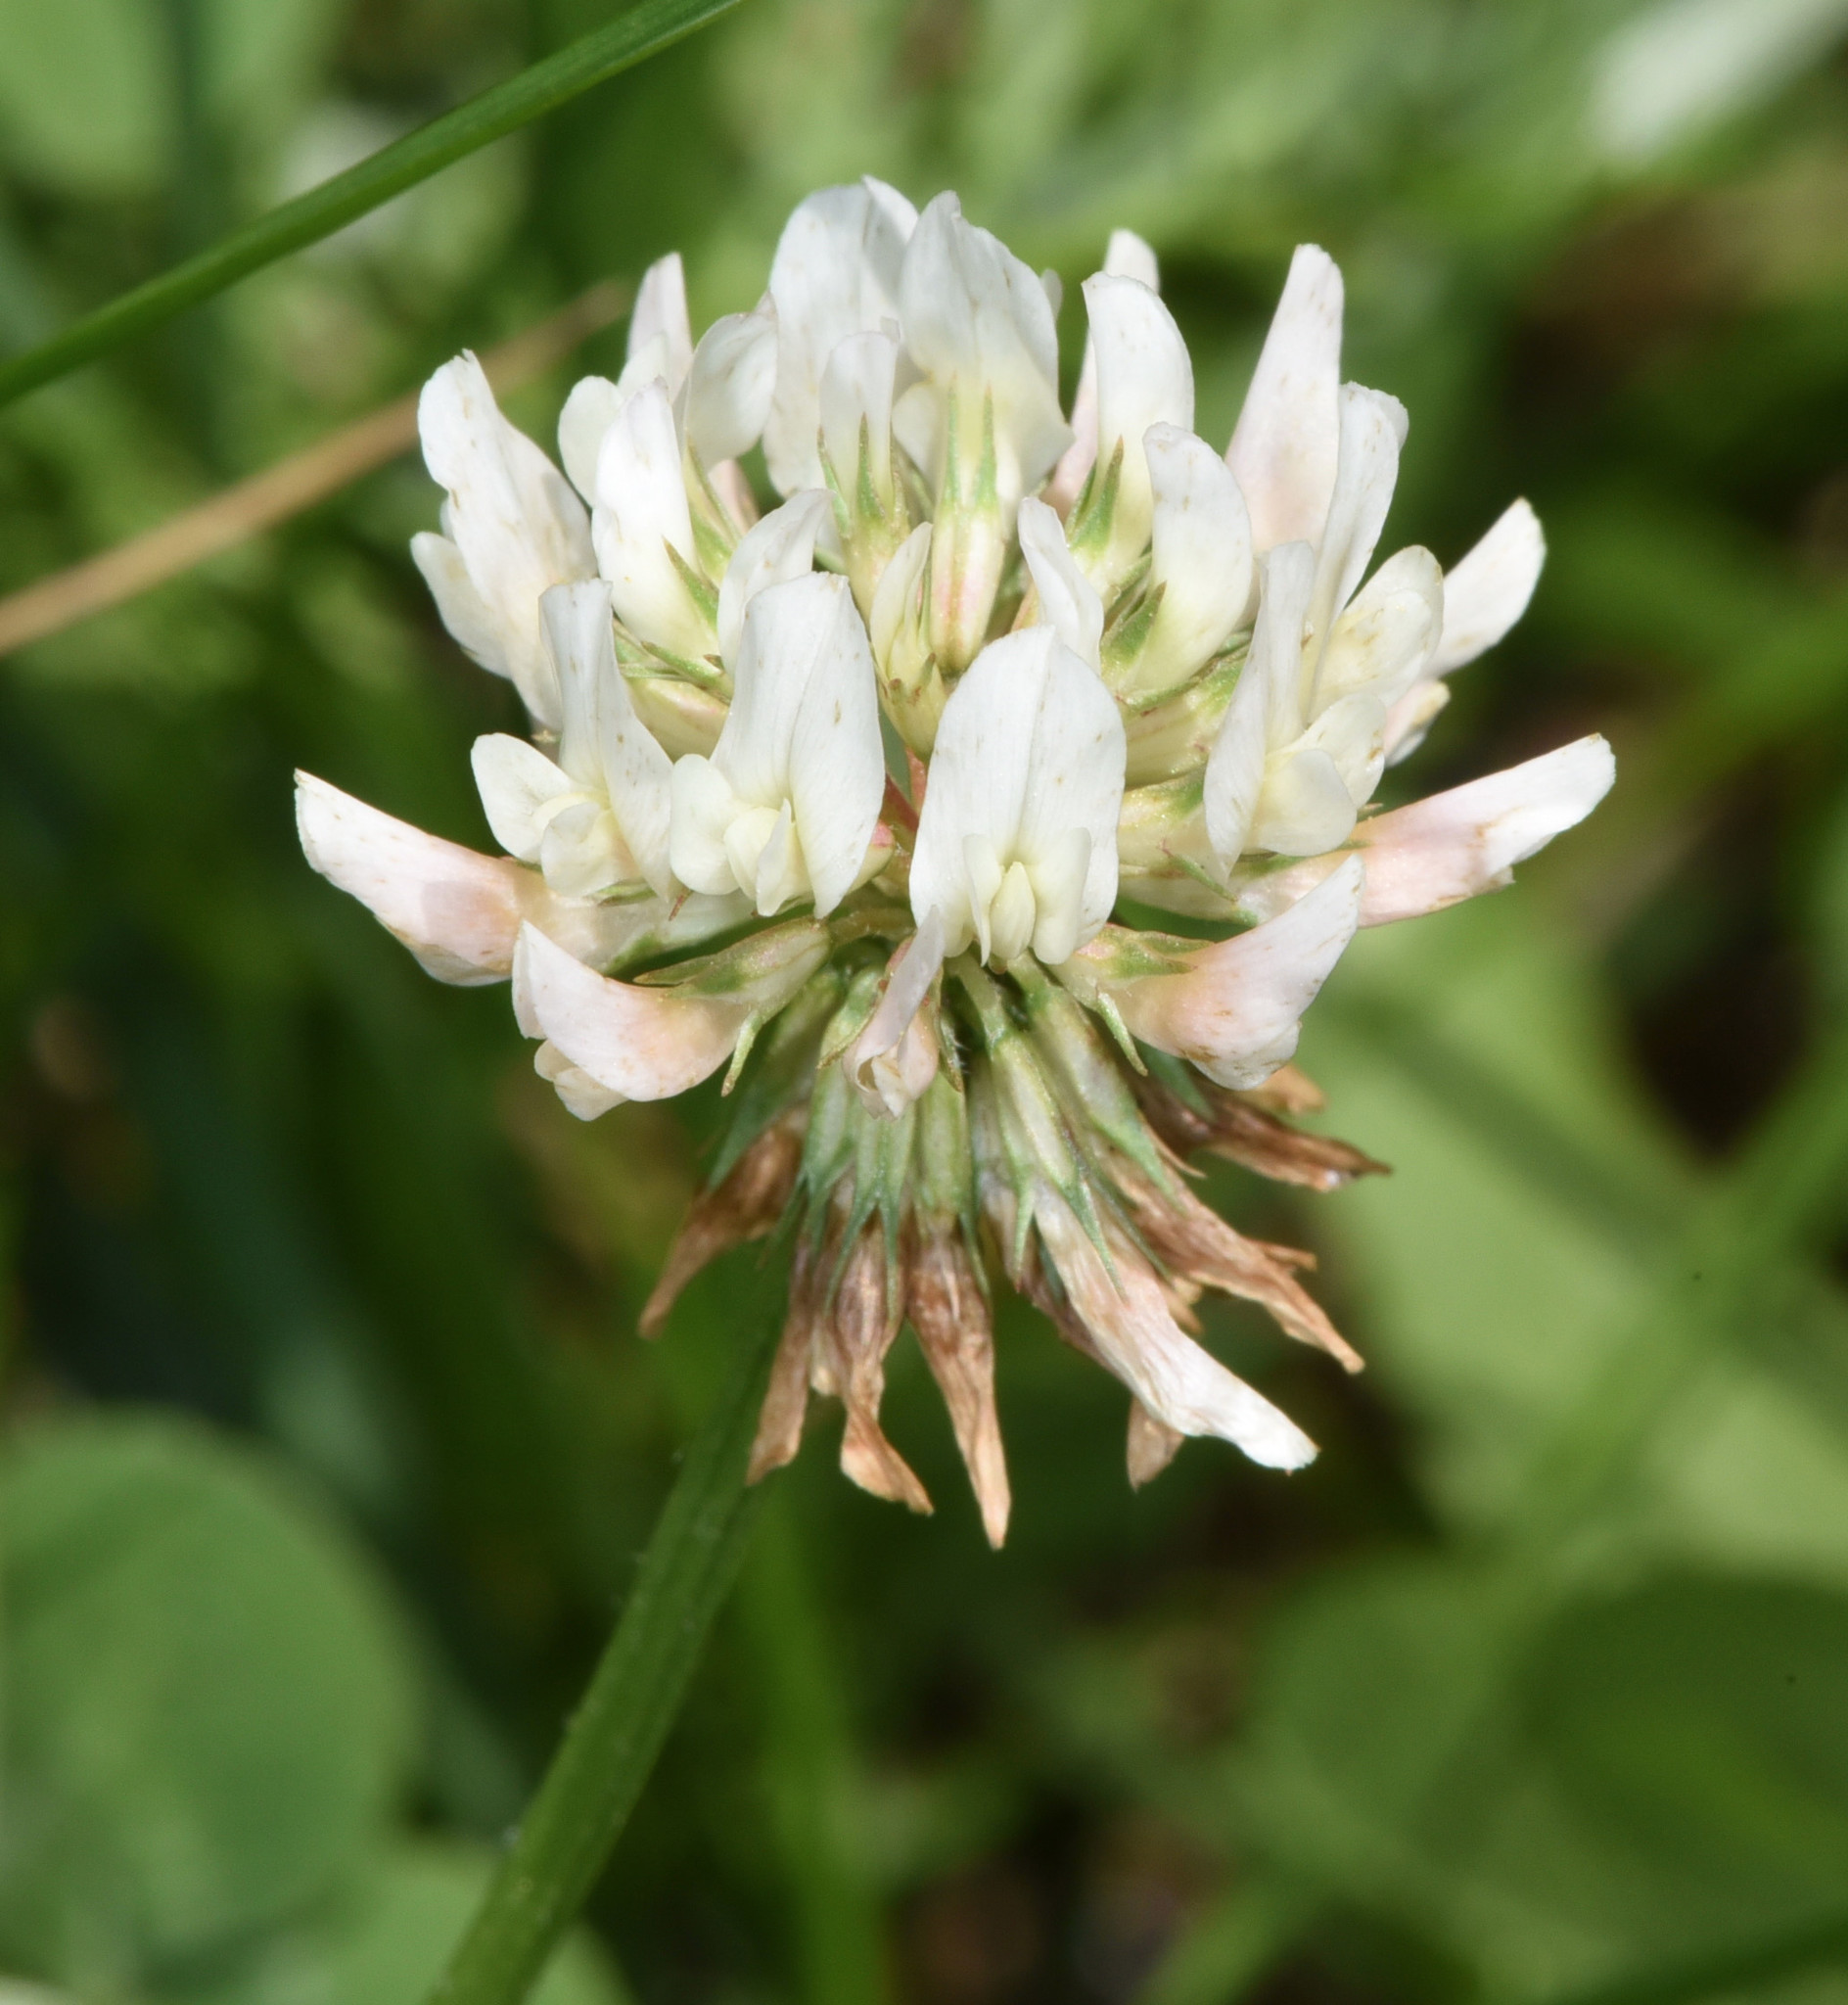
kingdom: Plantae
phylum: Tracheophyta
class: Magnoliopsida
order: Fabales
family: Fabaceae
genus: Trifolium
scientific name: Trifolium repens
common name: White clover
